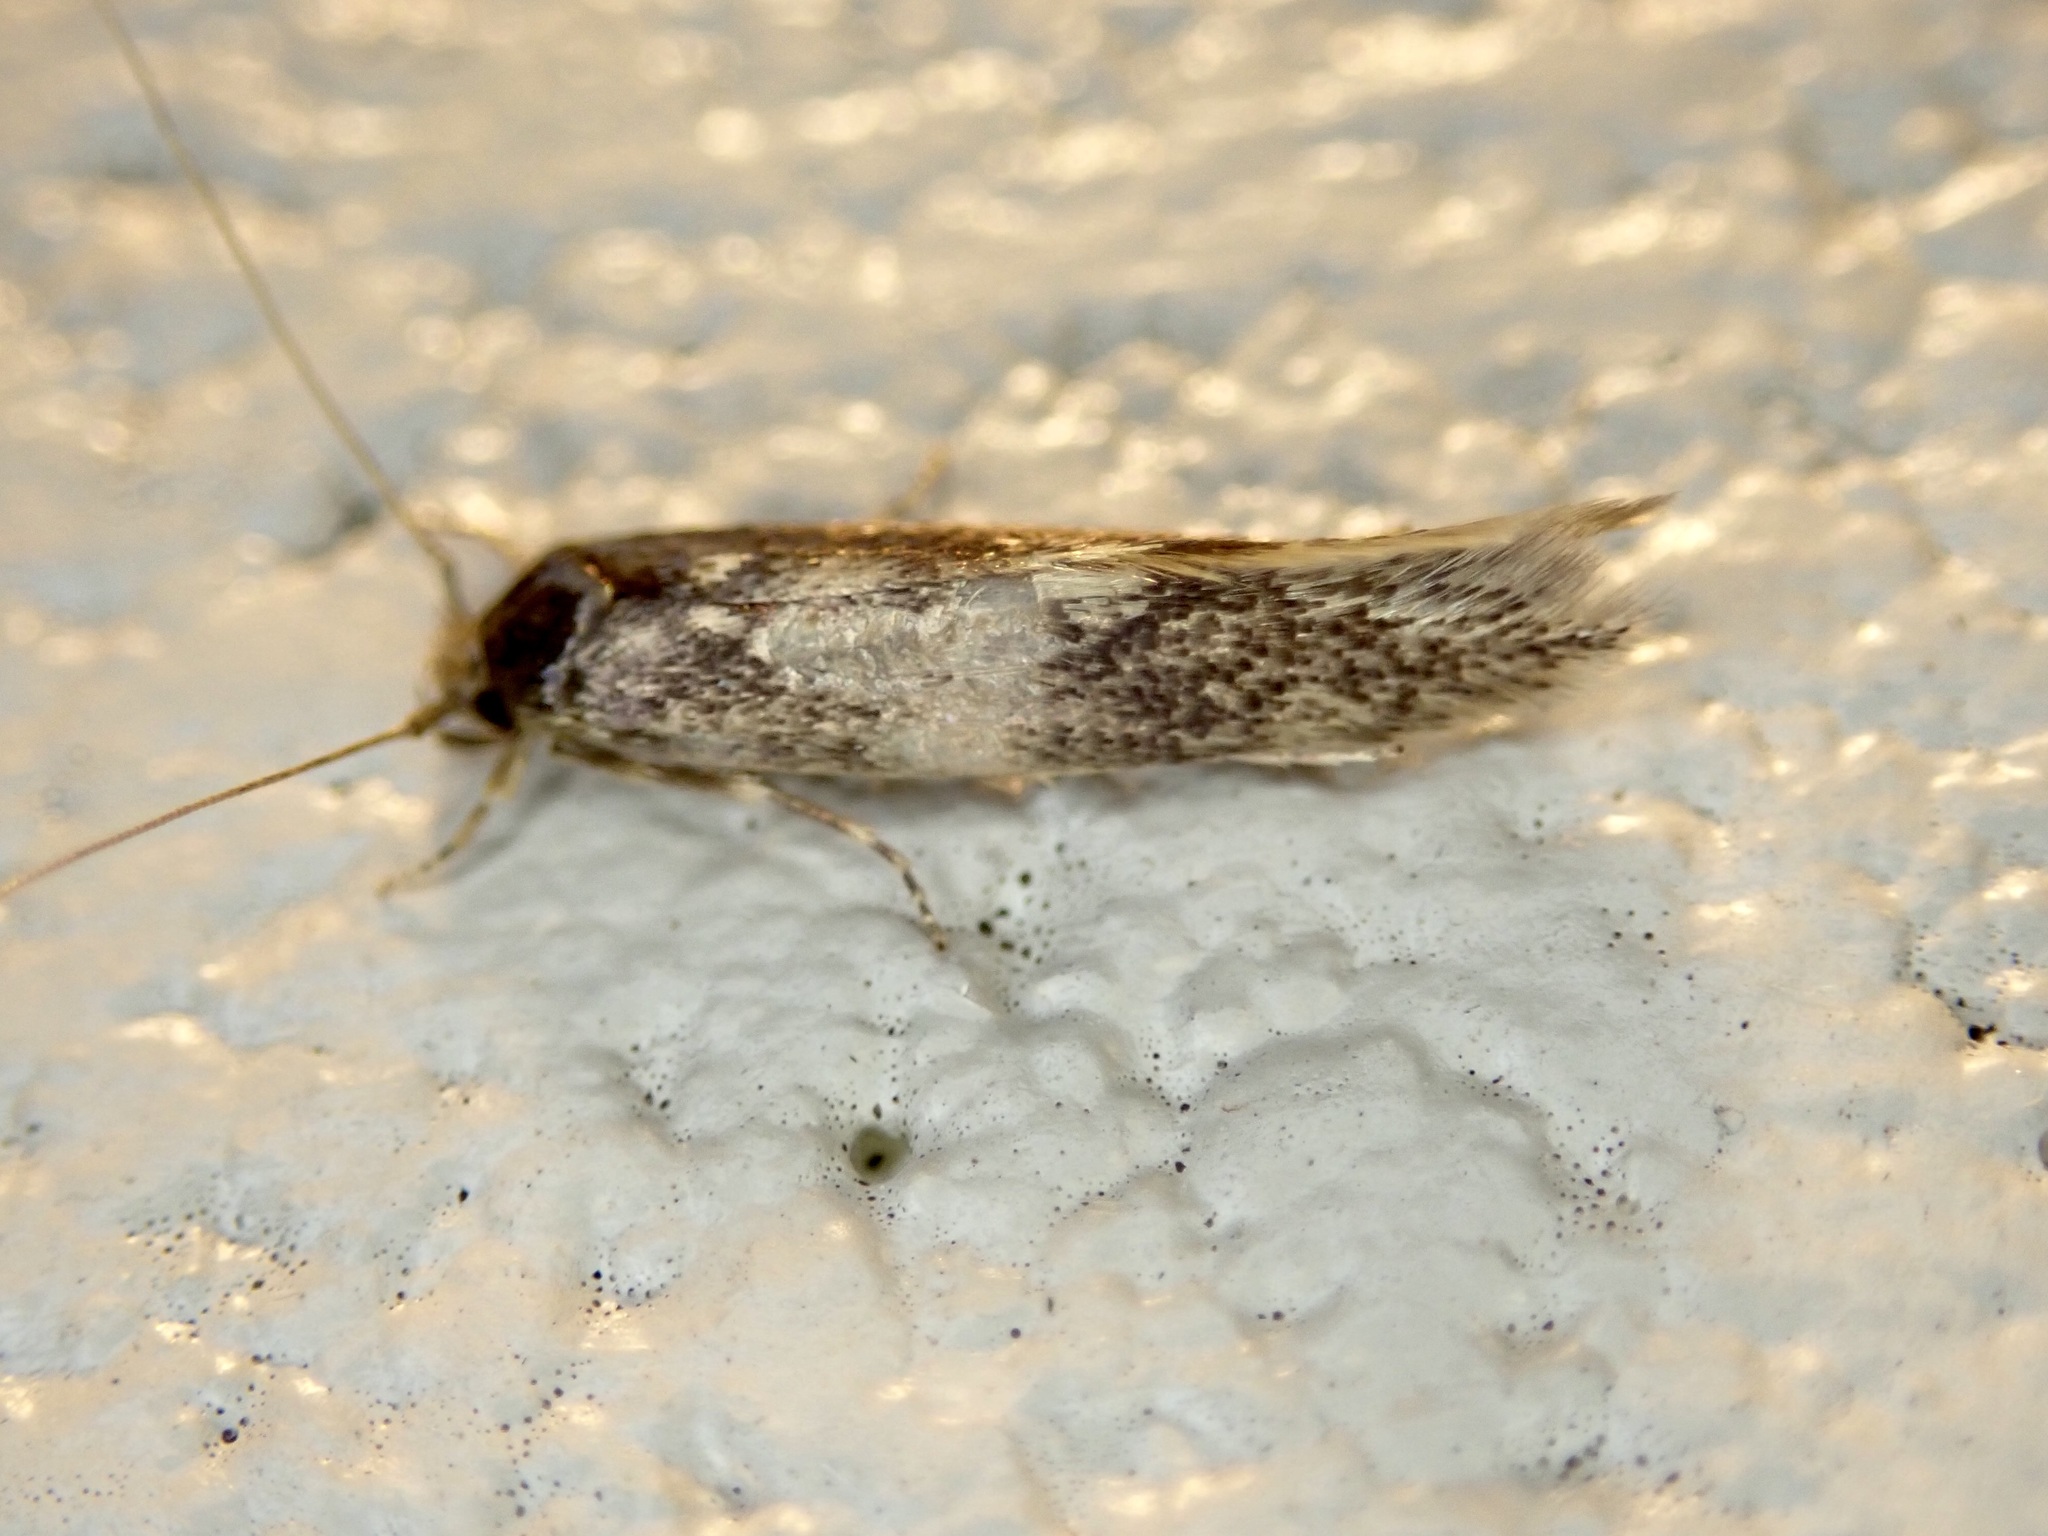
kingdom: Animalia
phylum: Arthropoda
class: Insecta
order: Lepidoptera
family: Tineidae
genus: Opogona
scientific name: Opogona omoscopa
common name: Moth
